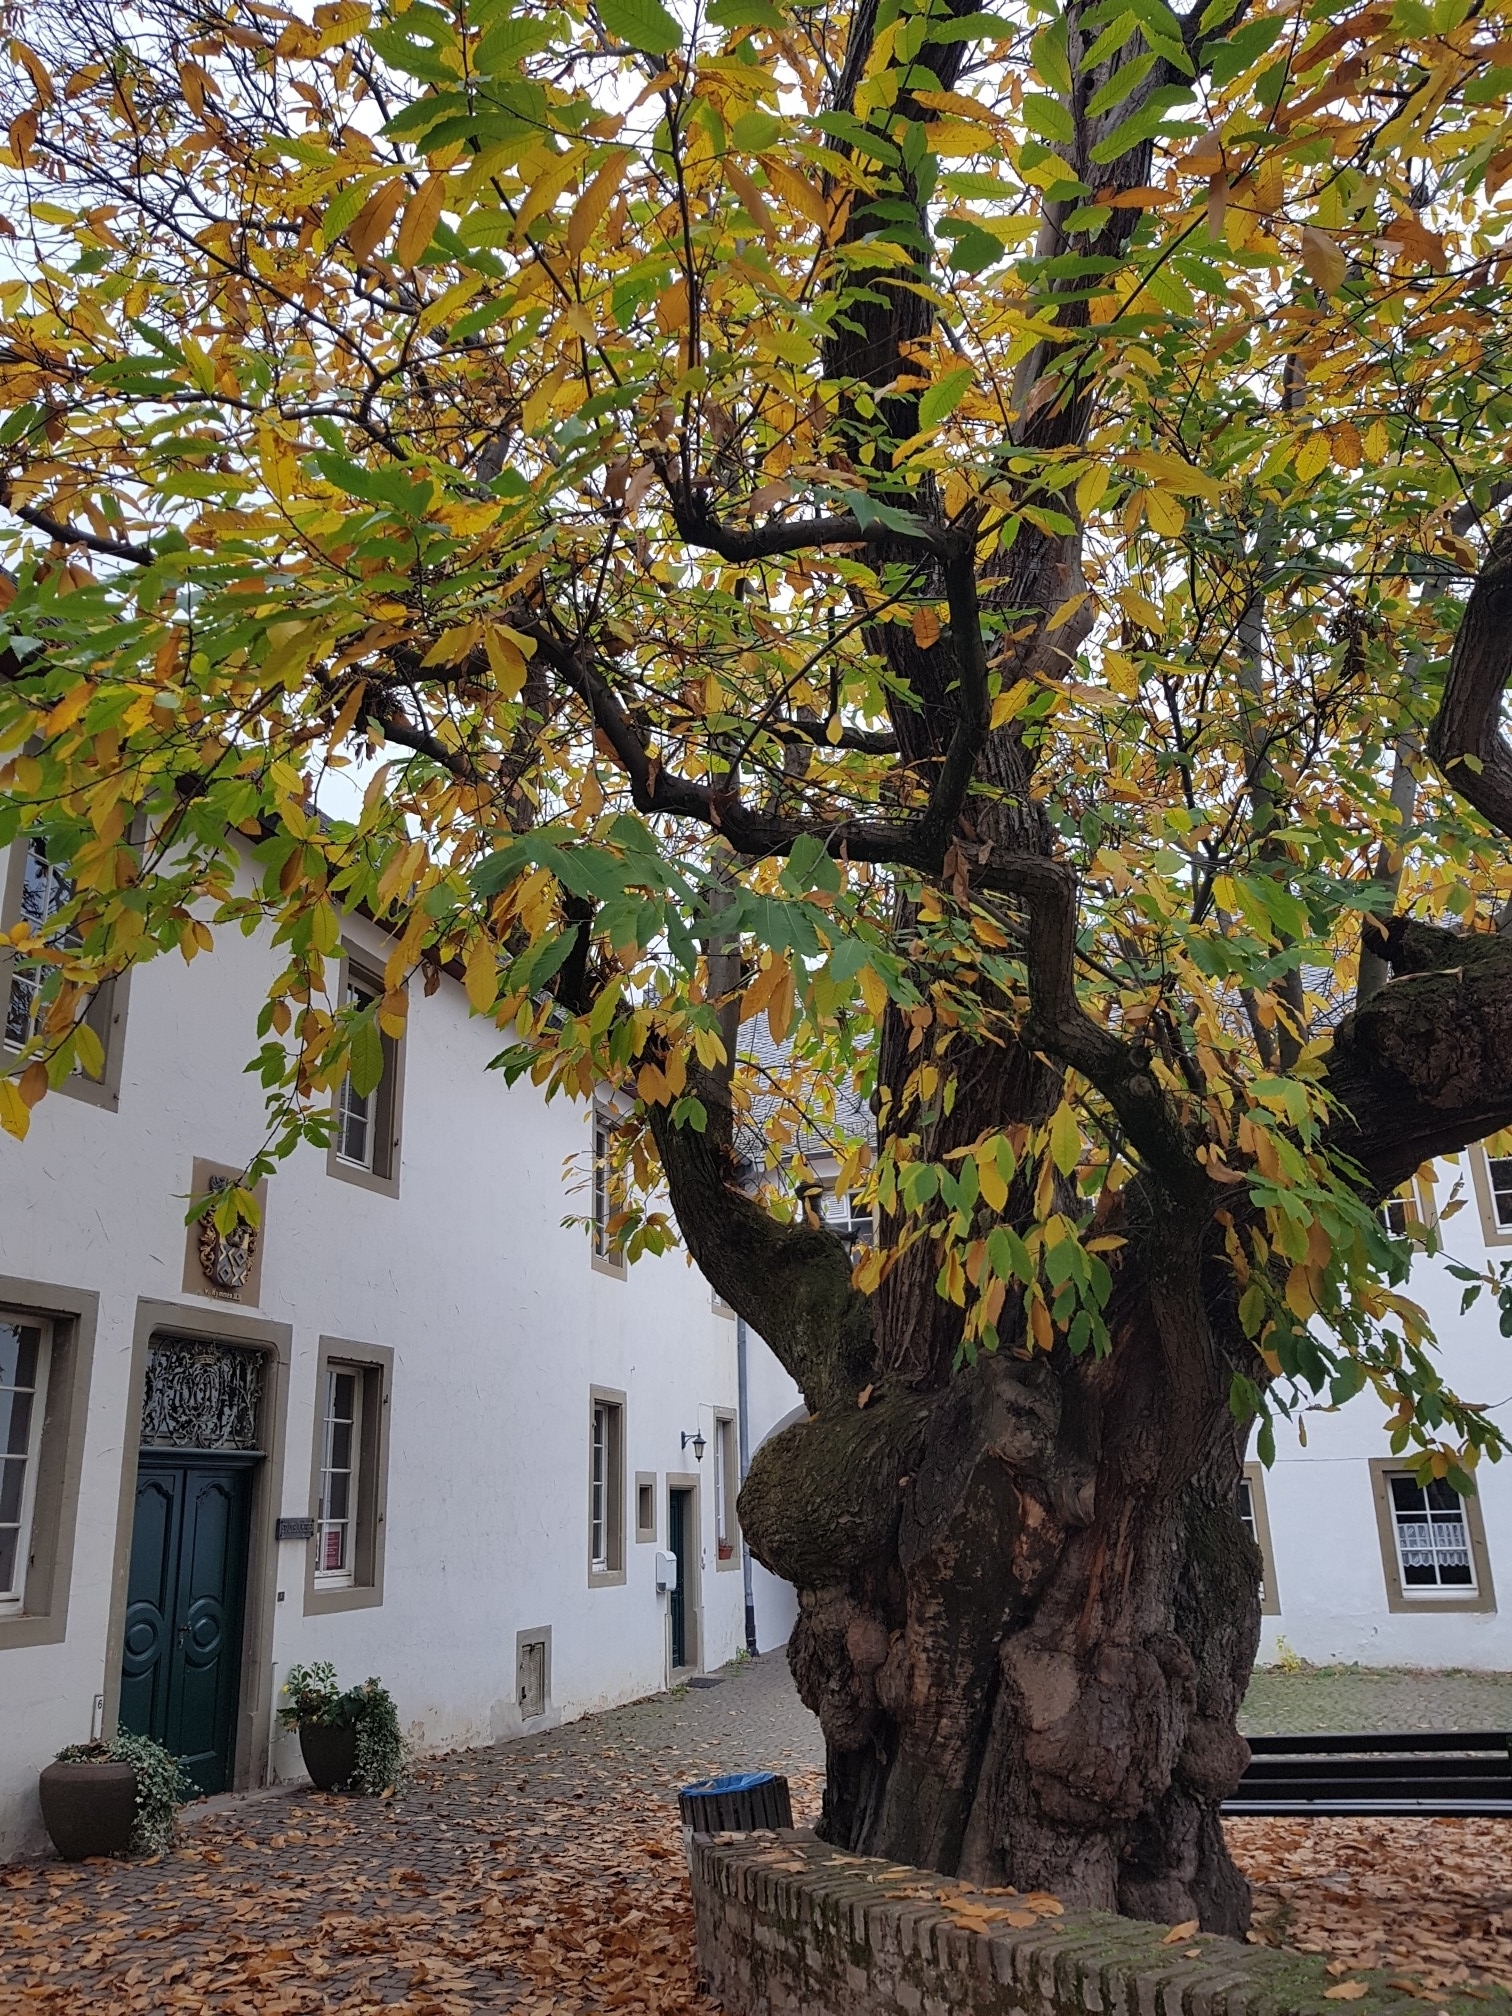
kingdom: Plantae
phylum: Tracheophyta
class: Magnoliopsida
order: Fagales
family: Fagaceae
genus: Castanea
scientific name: Castanea sativa
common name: Sweet chestnut
